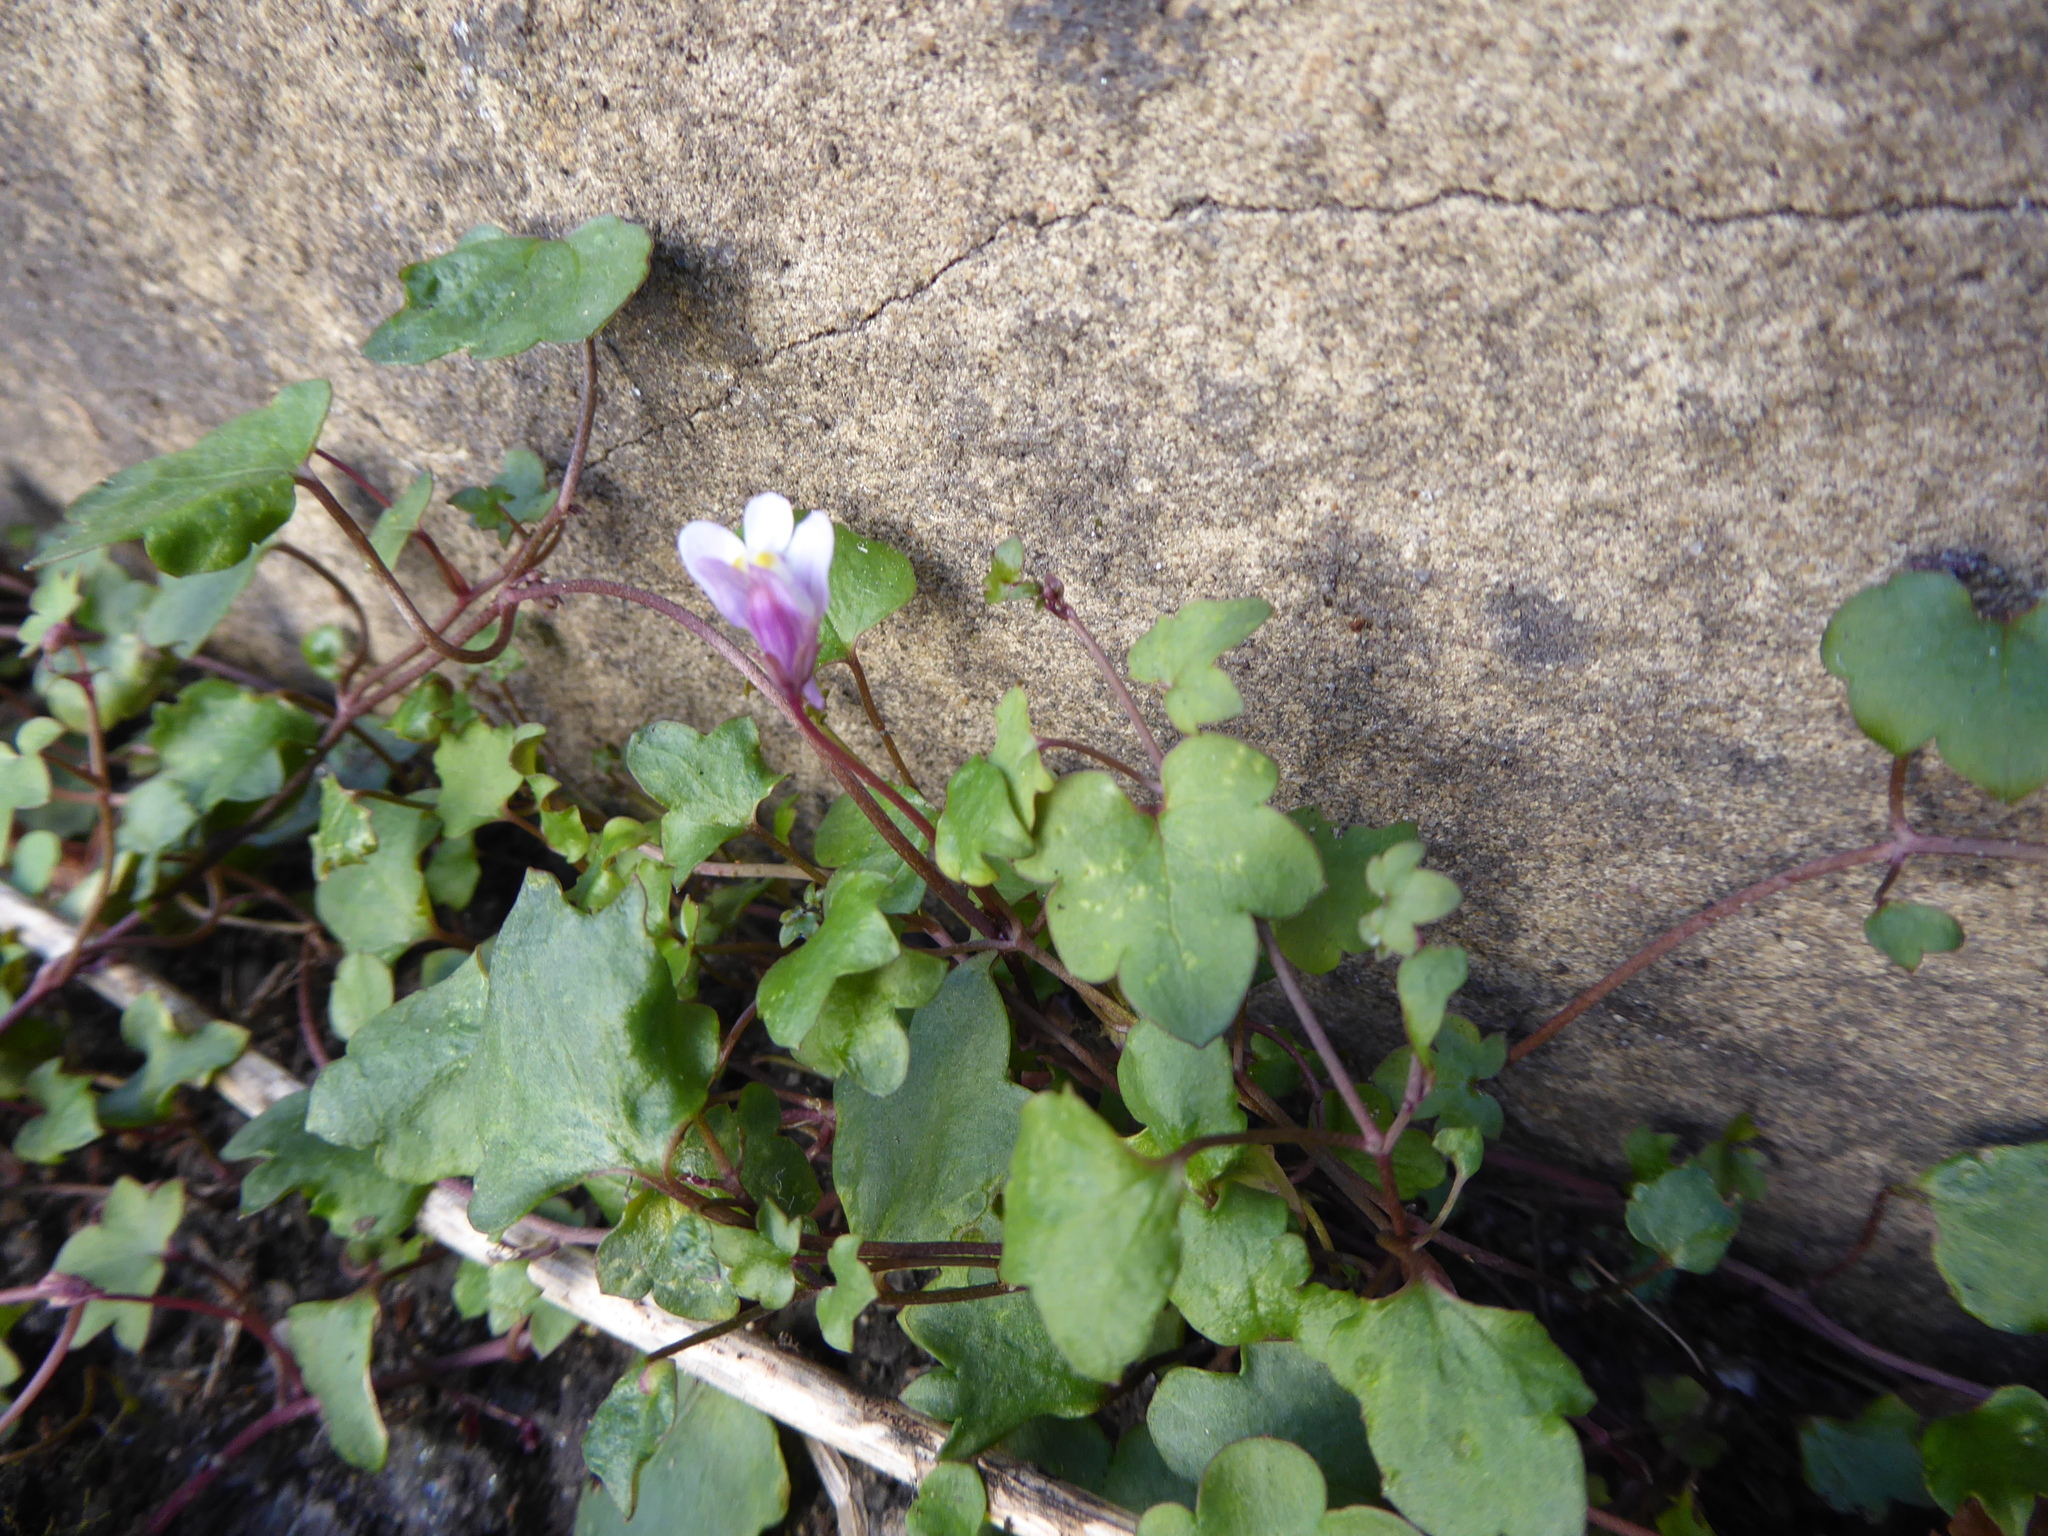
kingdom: Plantae
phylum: Tracheophyta
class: Magnoliopsida
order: Lamiales
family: Plantaginaceae
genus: Cymbalaria
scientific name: Cymbalaria muralis
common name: Ivy-leaved toadflax
